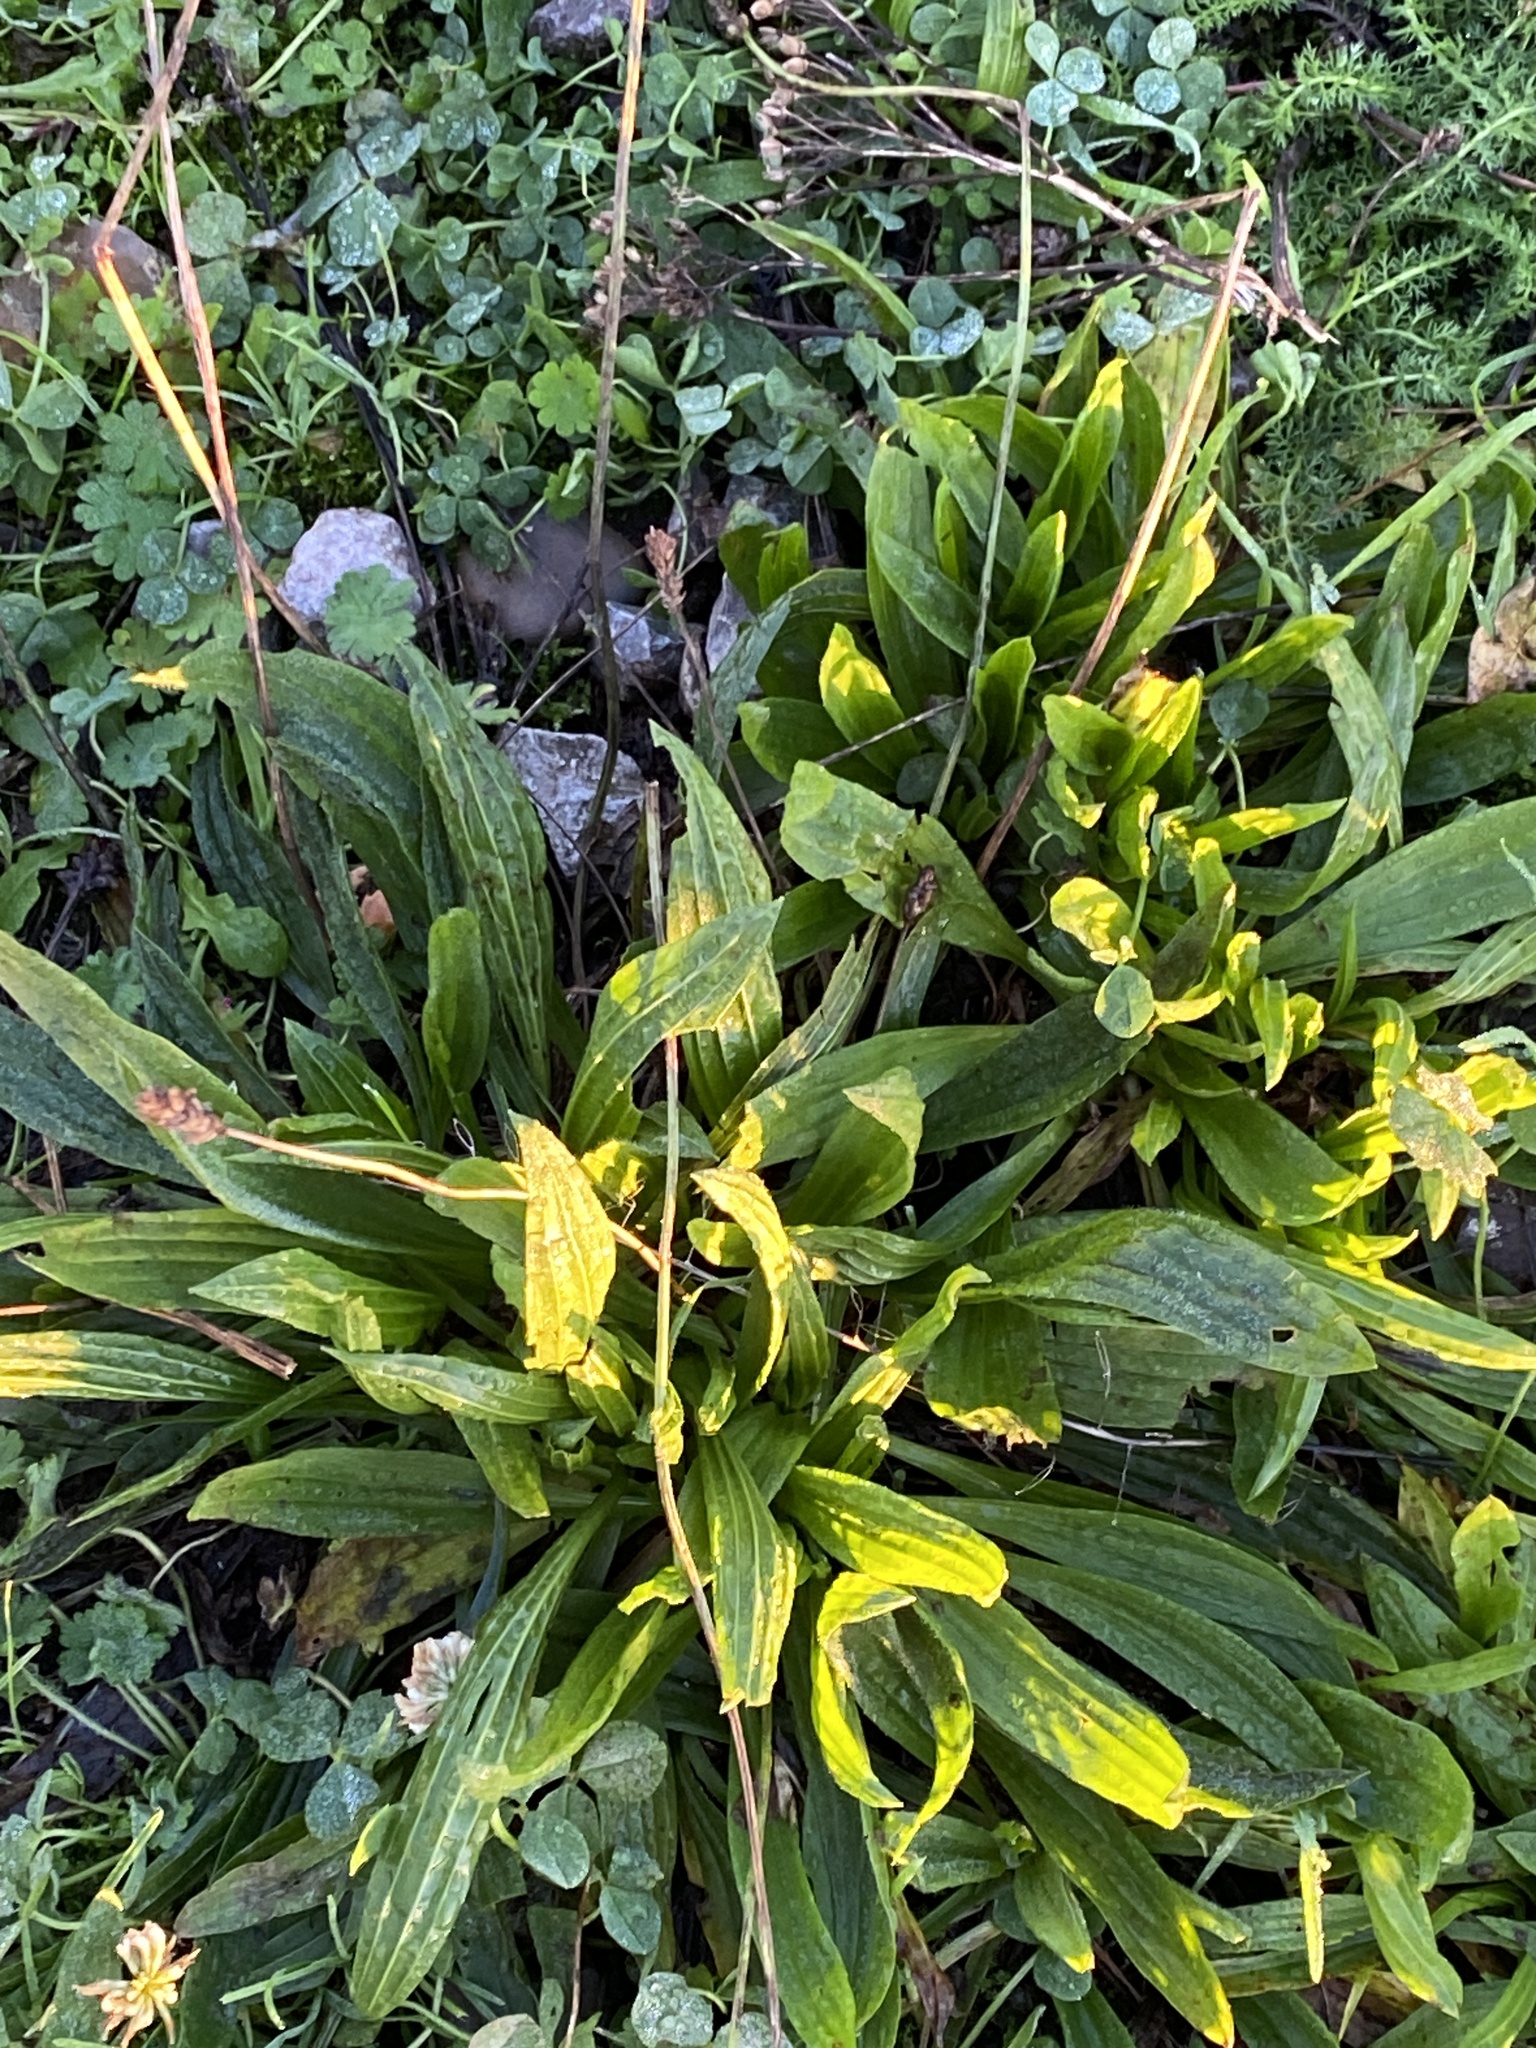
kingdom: Plantae
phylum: Tracheophyta
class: Magnoliopsida
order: Lamiales
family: Plantaginaceae
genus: Plantago
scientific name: Plantago lanceolata
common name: Ribwort plantain
